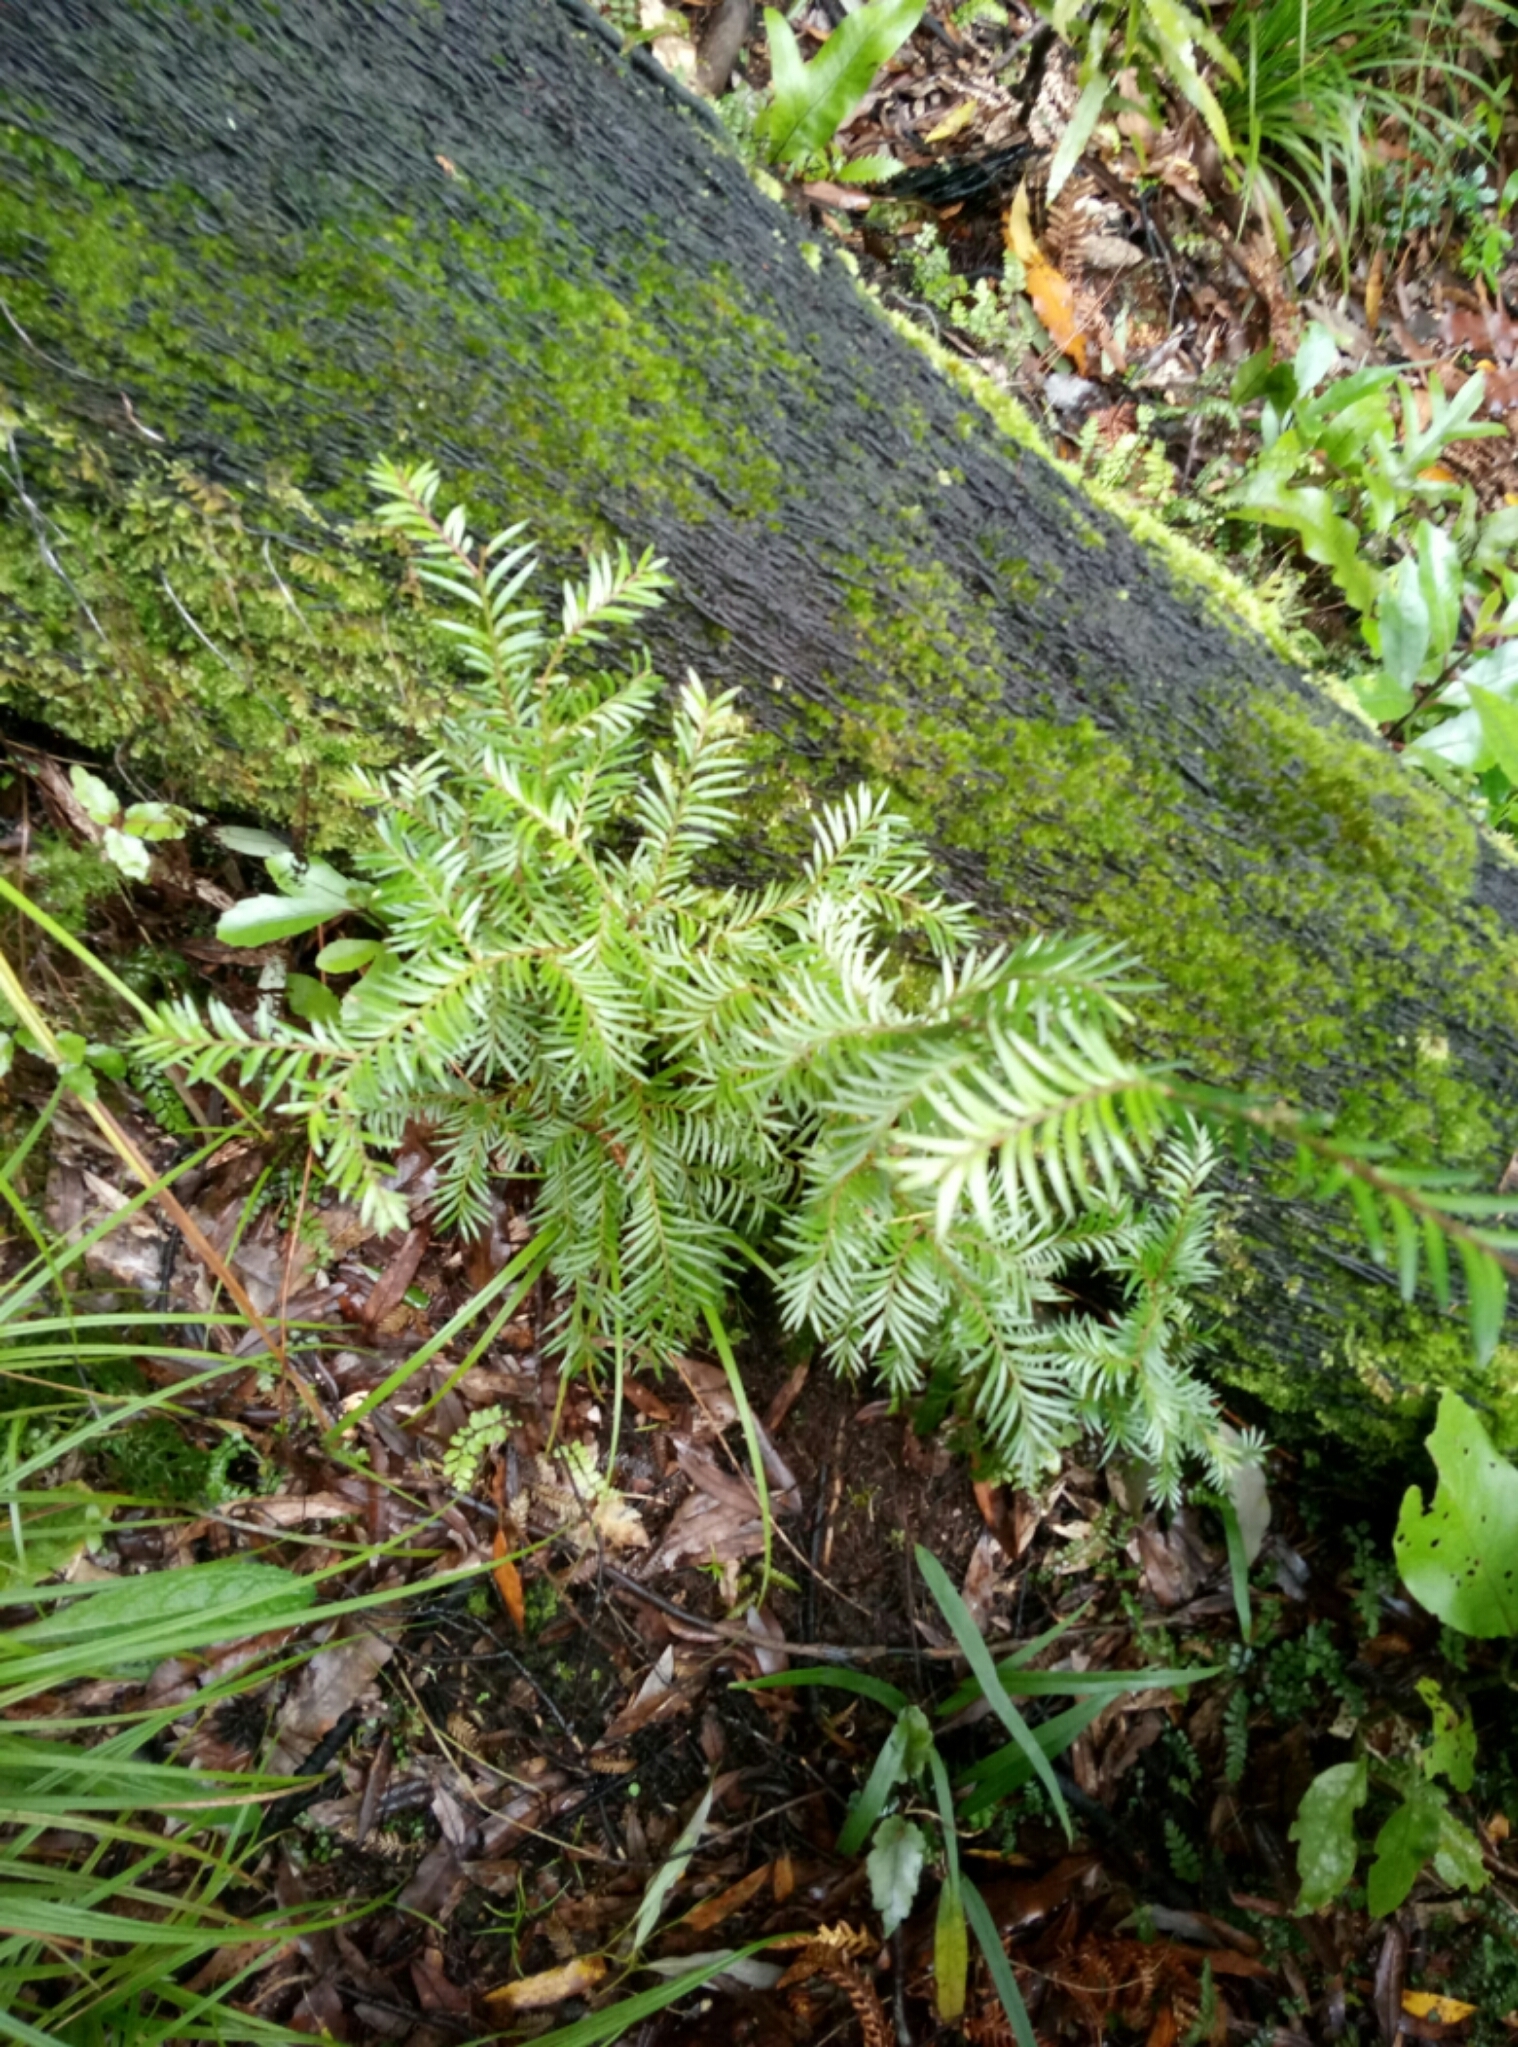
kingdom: Plantae
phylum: Tracheophyta
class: Pinopsida
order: Pinales
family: Podocarpaceae
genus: Prumnopitys
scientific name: Prumnopitys ferruginea
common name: Brown pine
